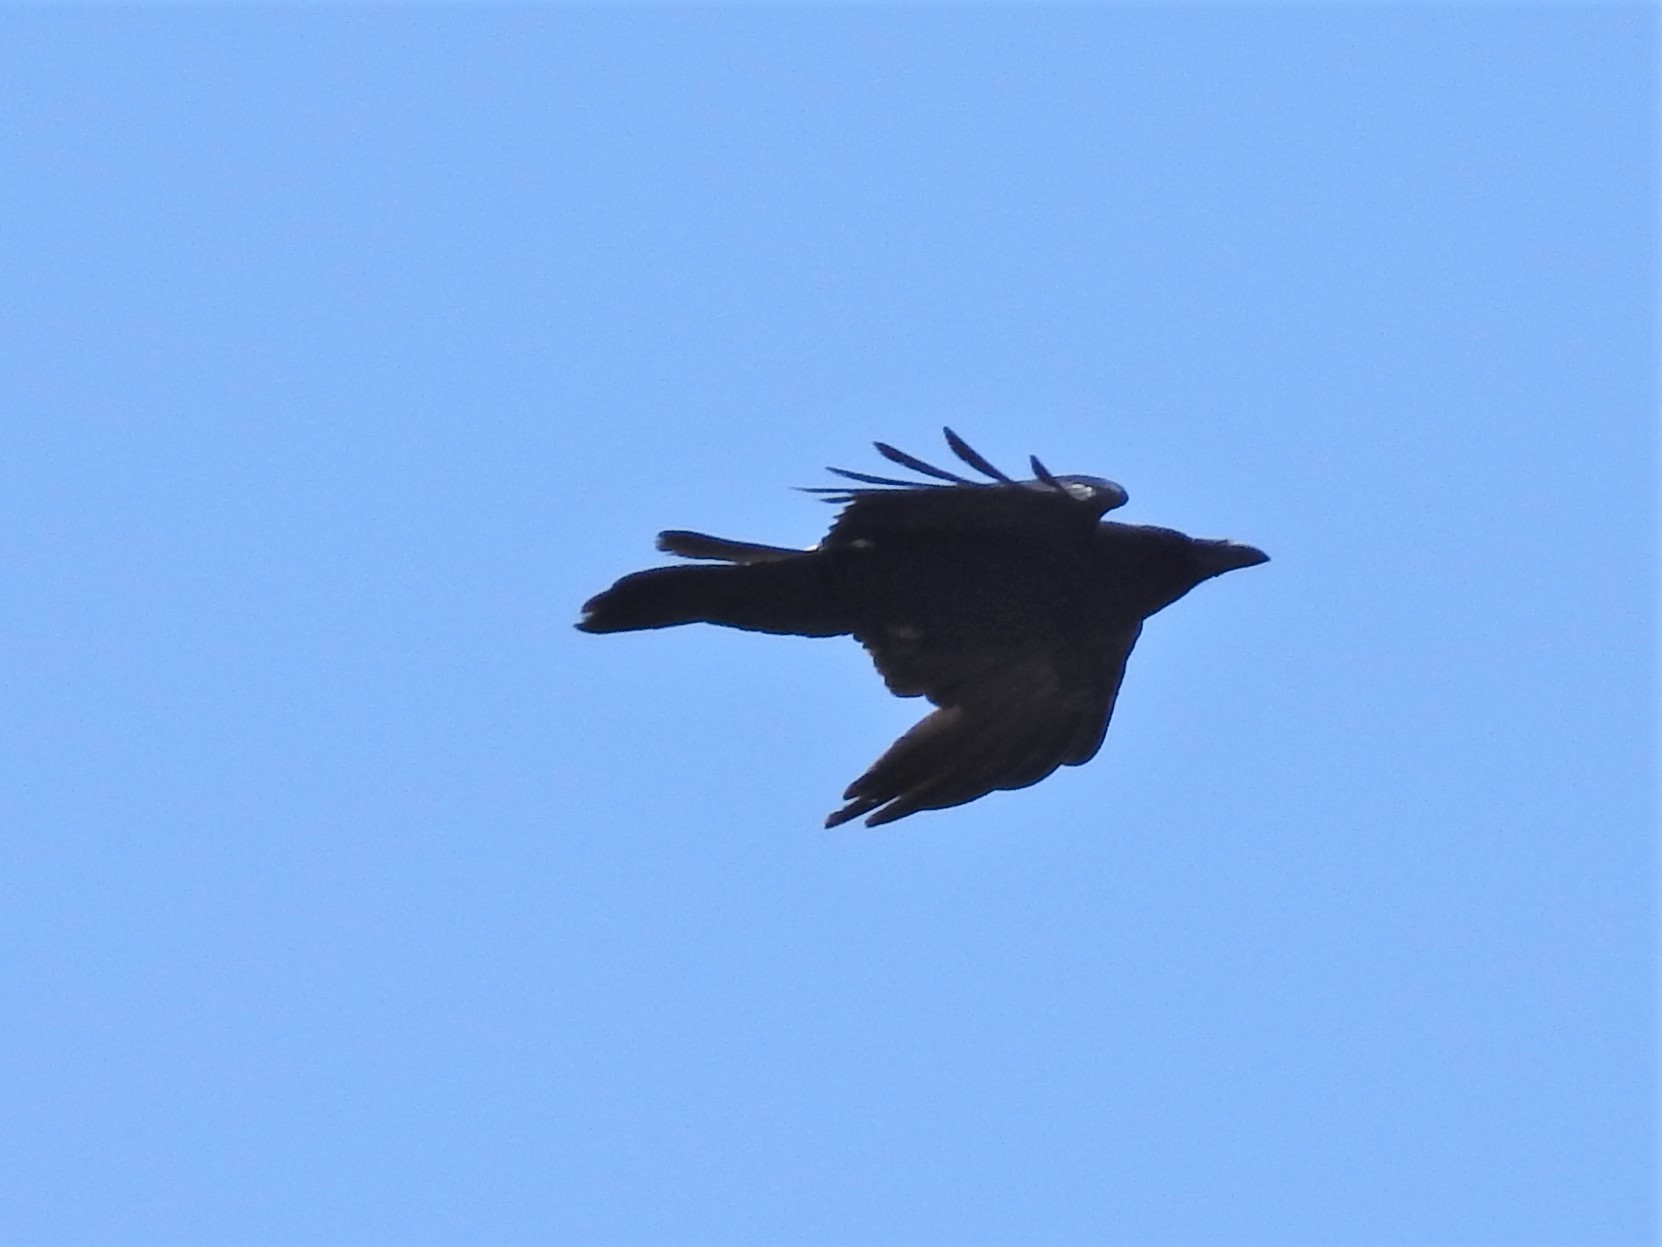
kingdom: Animalia
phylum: Chordata
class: Aves
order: Passeriformes
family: Corvidae
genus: Corvus
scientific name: Corvus corax
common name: Common raven
